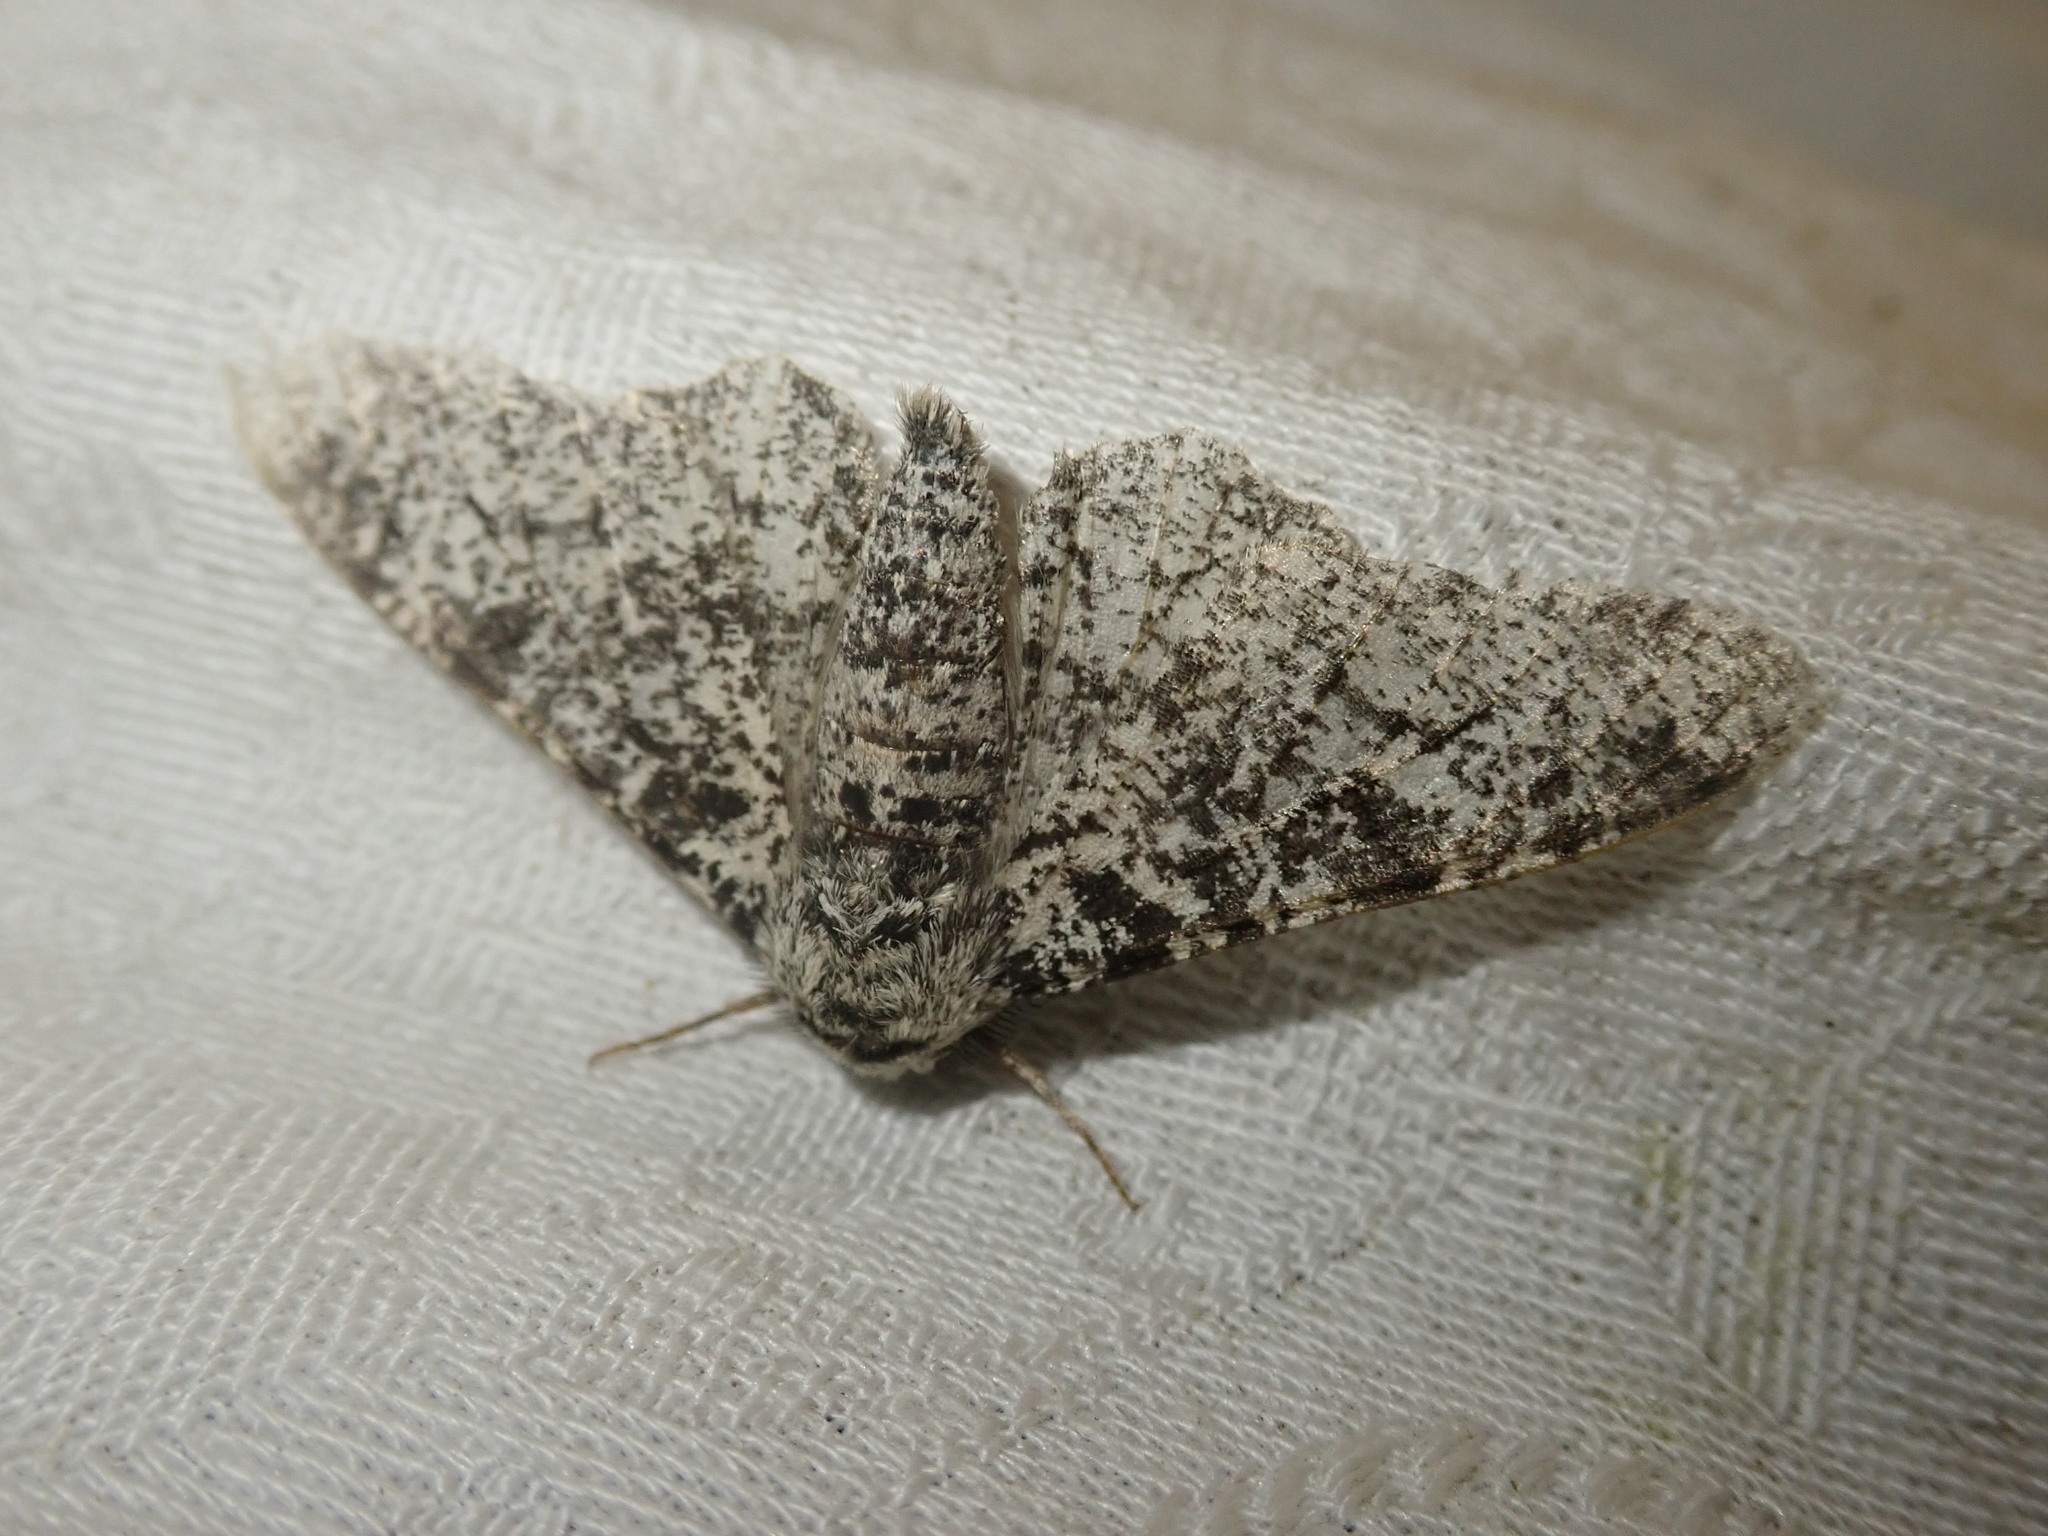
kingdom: Animalia
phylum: Arthropoda
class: Insecta
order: Lepidoptera
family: Geometridae
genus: Biston
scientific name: Biston betularia
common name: Peppered moth
